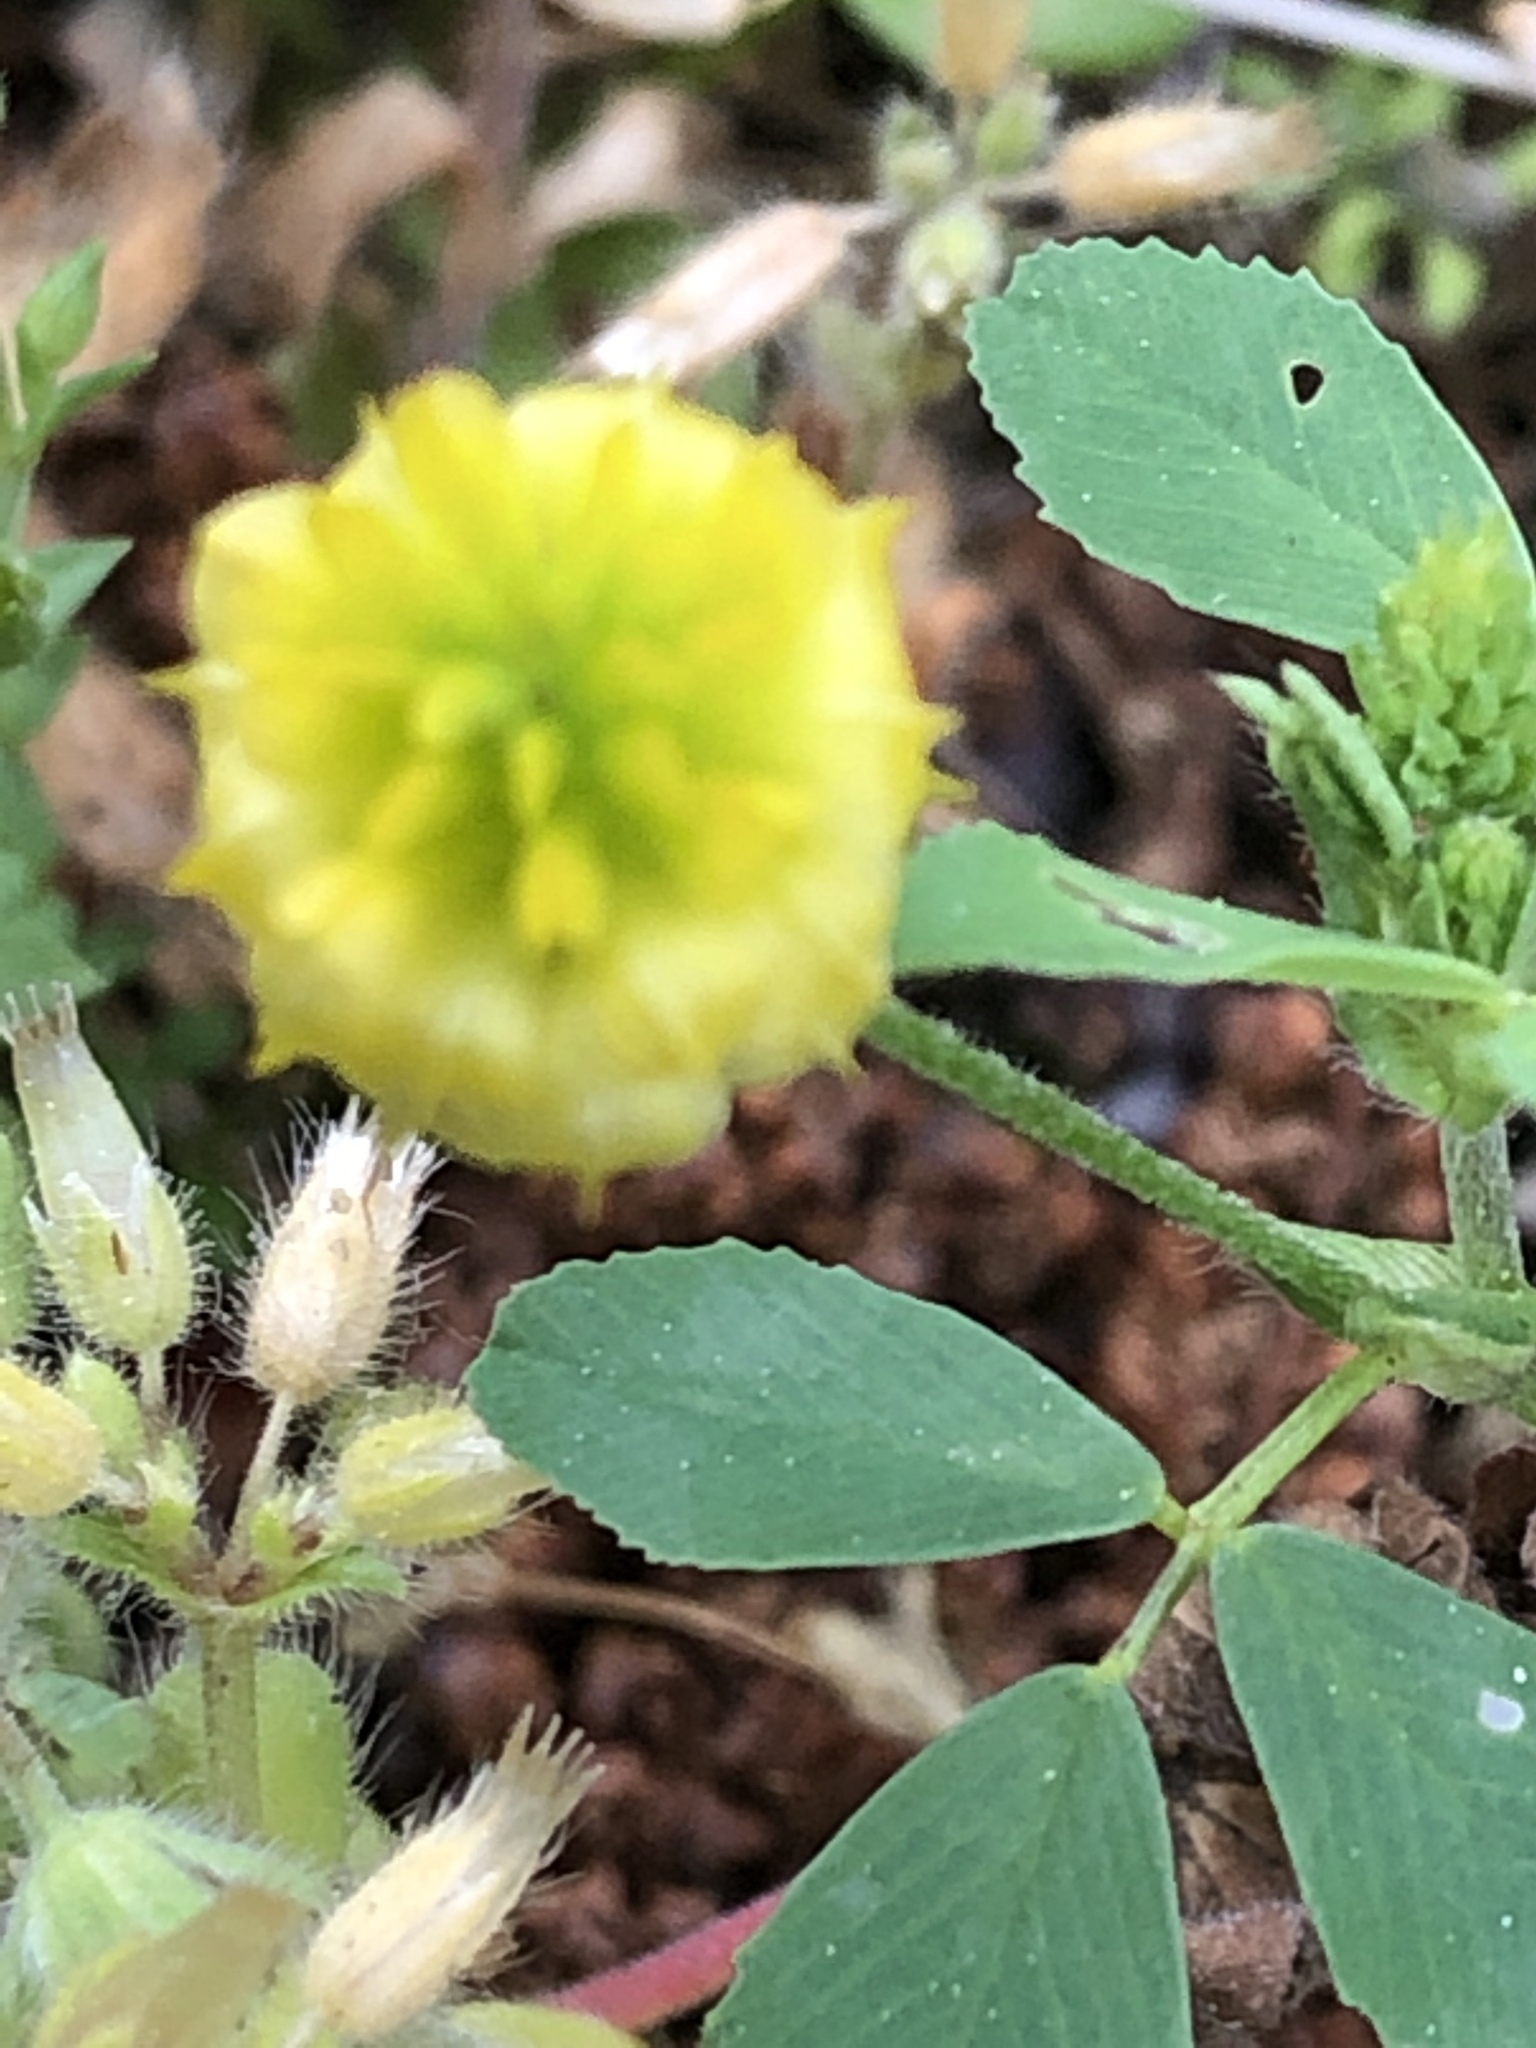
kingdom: Plantae
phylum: Tracheophyta
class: Magnoliopsida
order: Fabales
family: Fabaceae
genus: Trifolium
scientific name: Trifolium campestre
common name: Field clover
